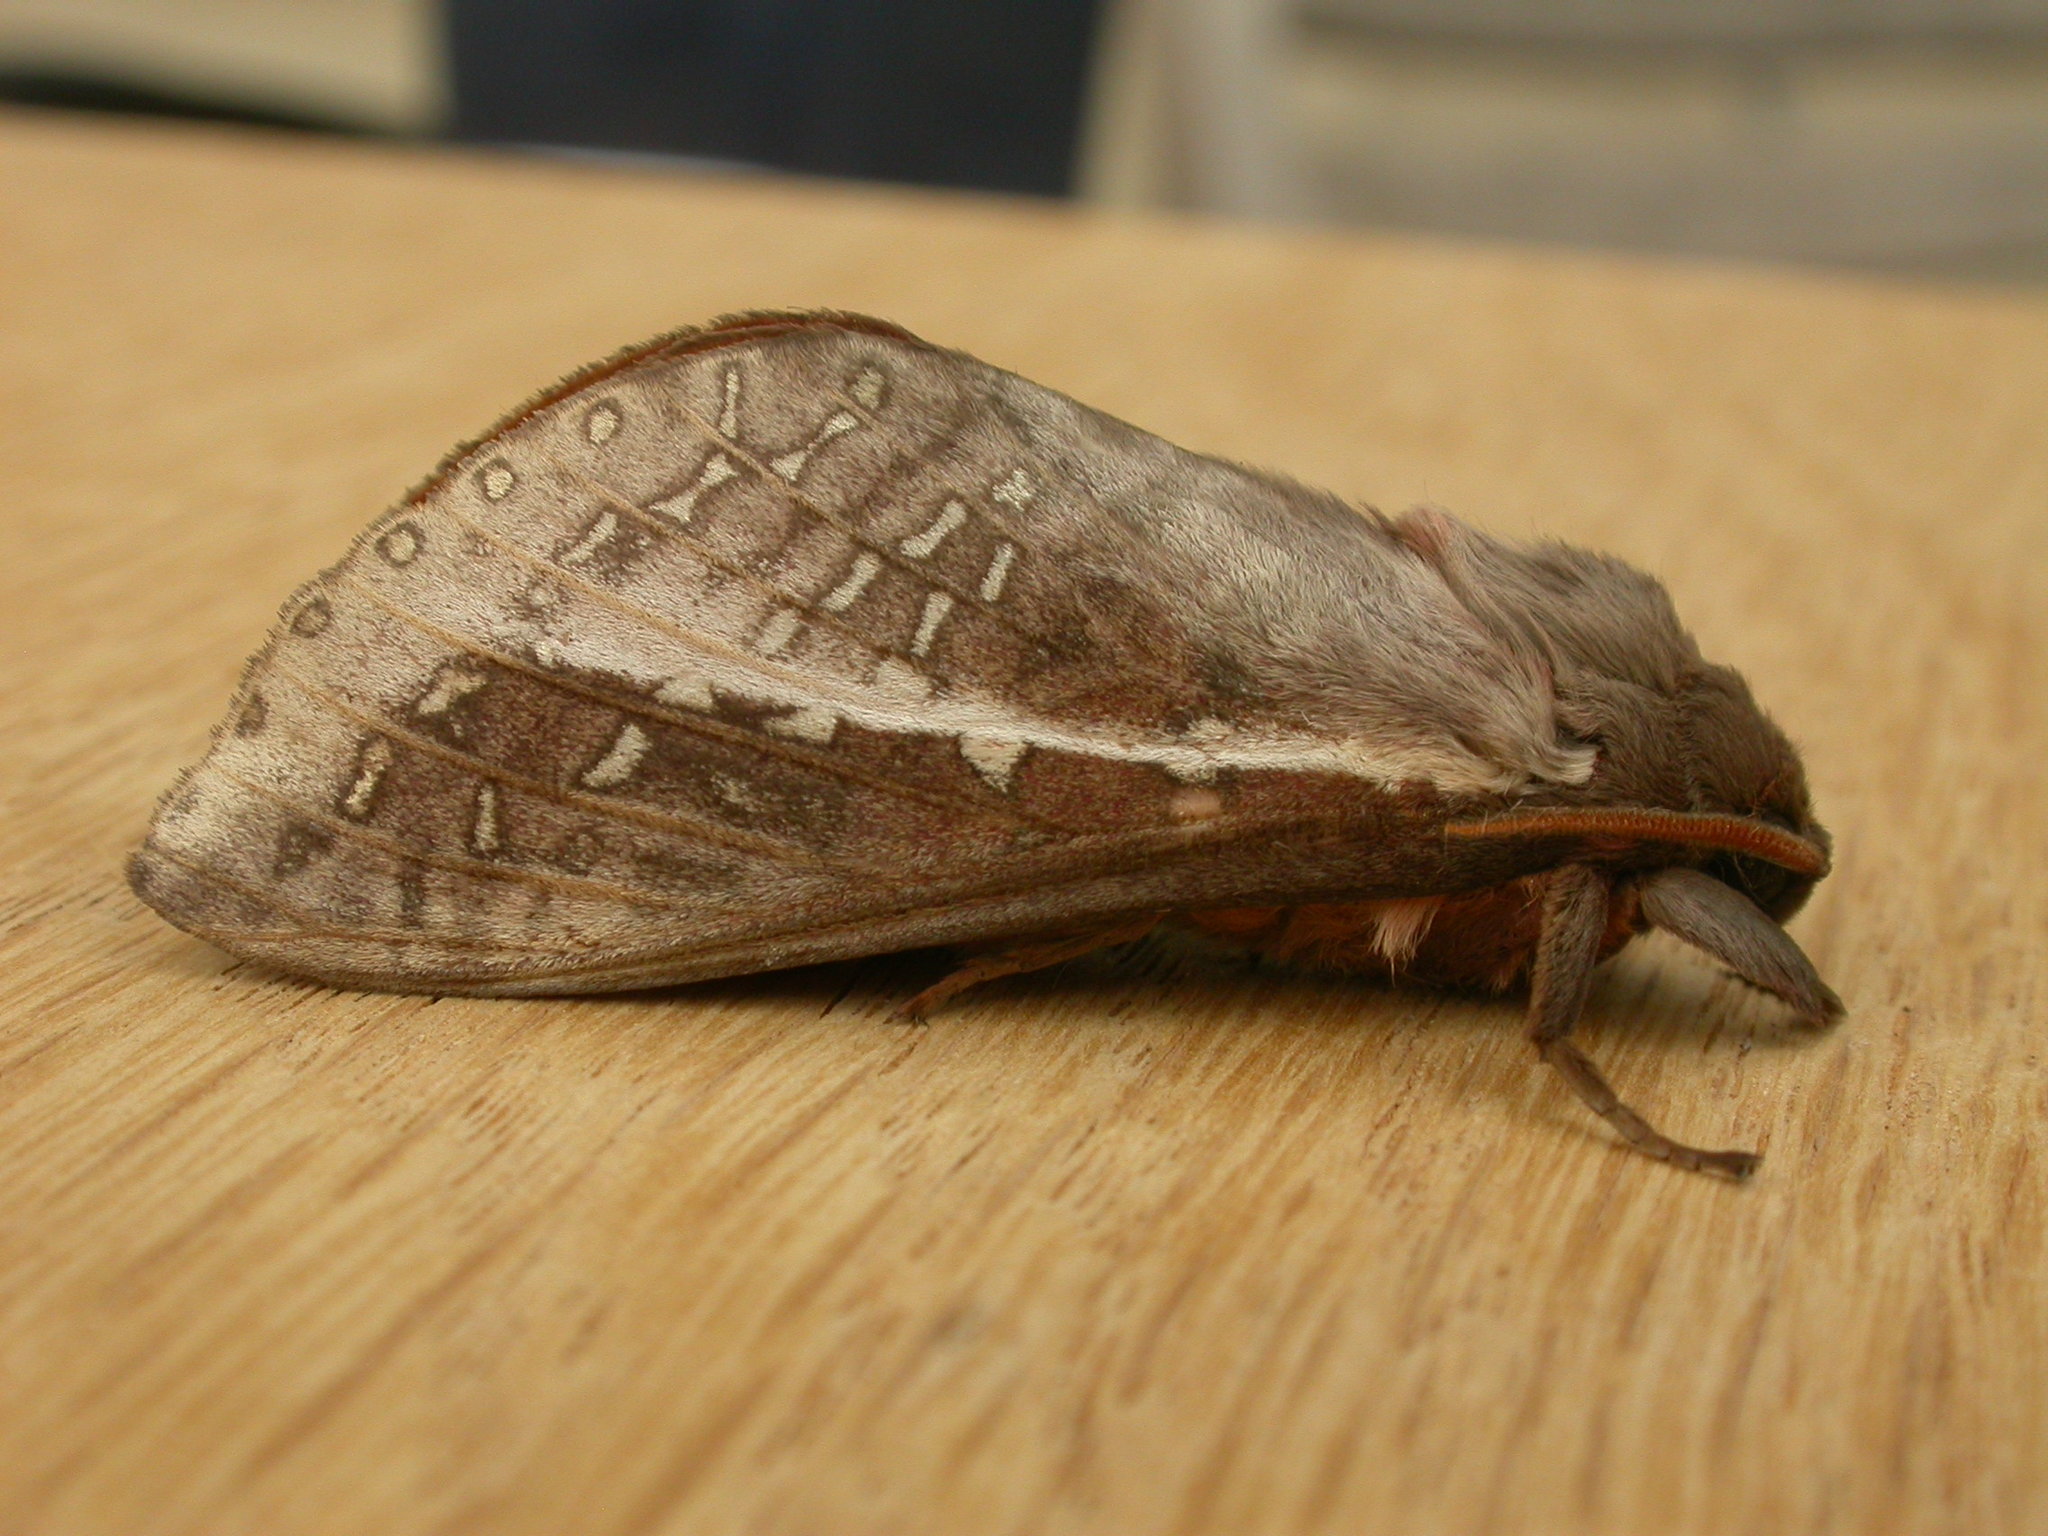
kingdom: Animalia
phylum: Arthropoda
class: Insecta
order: Lepidoptera
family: Hepialidae
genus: Oxycanus
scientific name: Oxycanus dirempta
